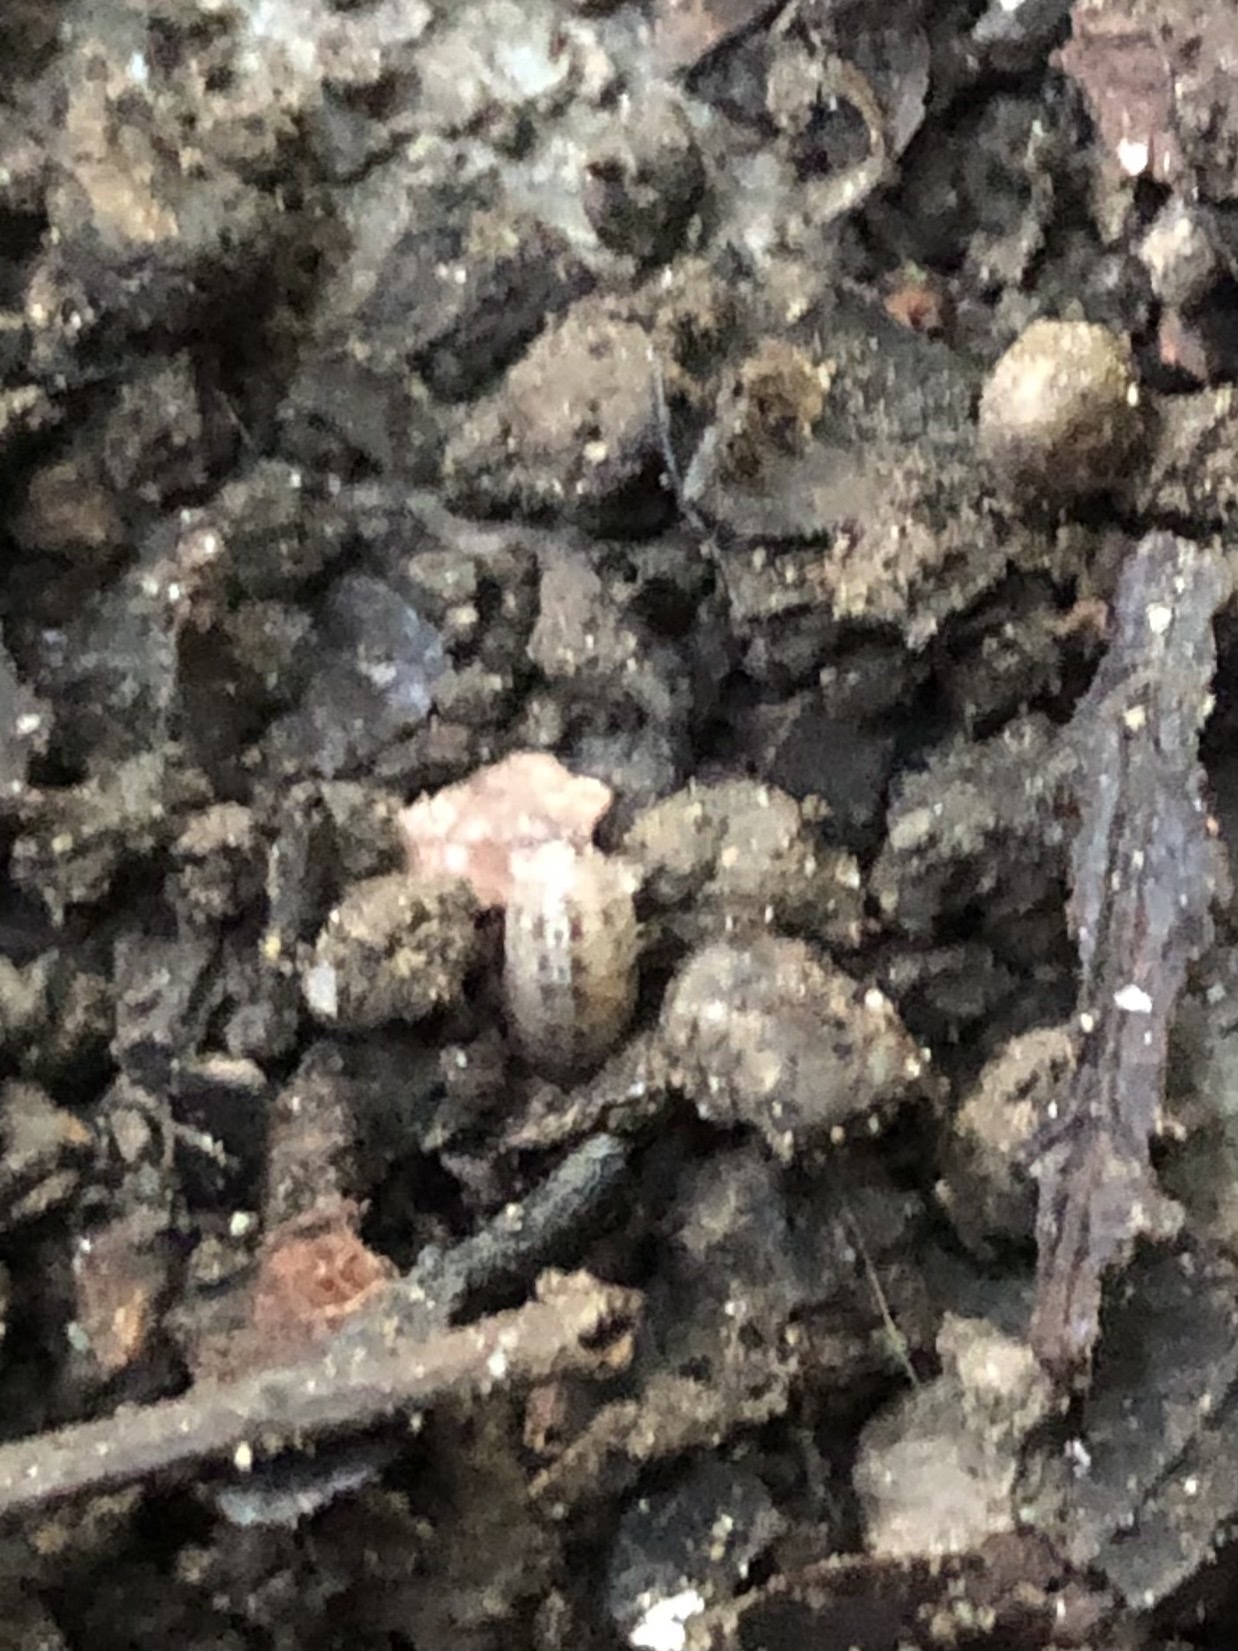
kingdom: Animalia
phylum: Arthropoda
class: Malacostraca
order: Isopoda
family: Armadillidiidae
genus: Armadillidium
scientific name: Armadillidium vulgare
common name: Common pill woodlouse
